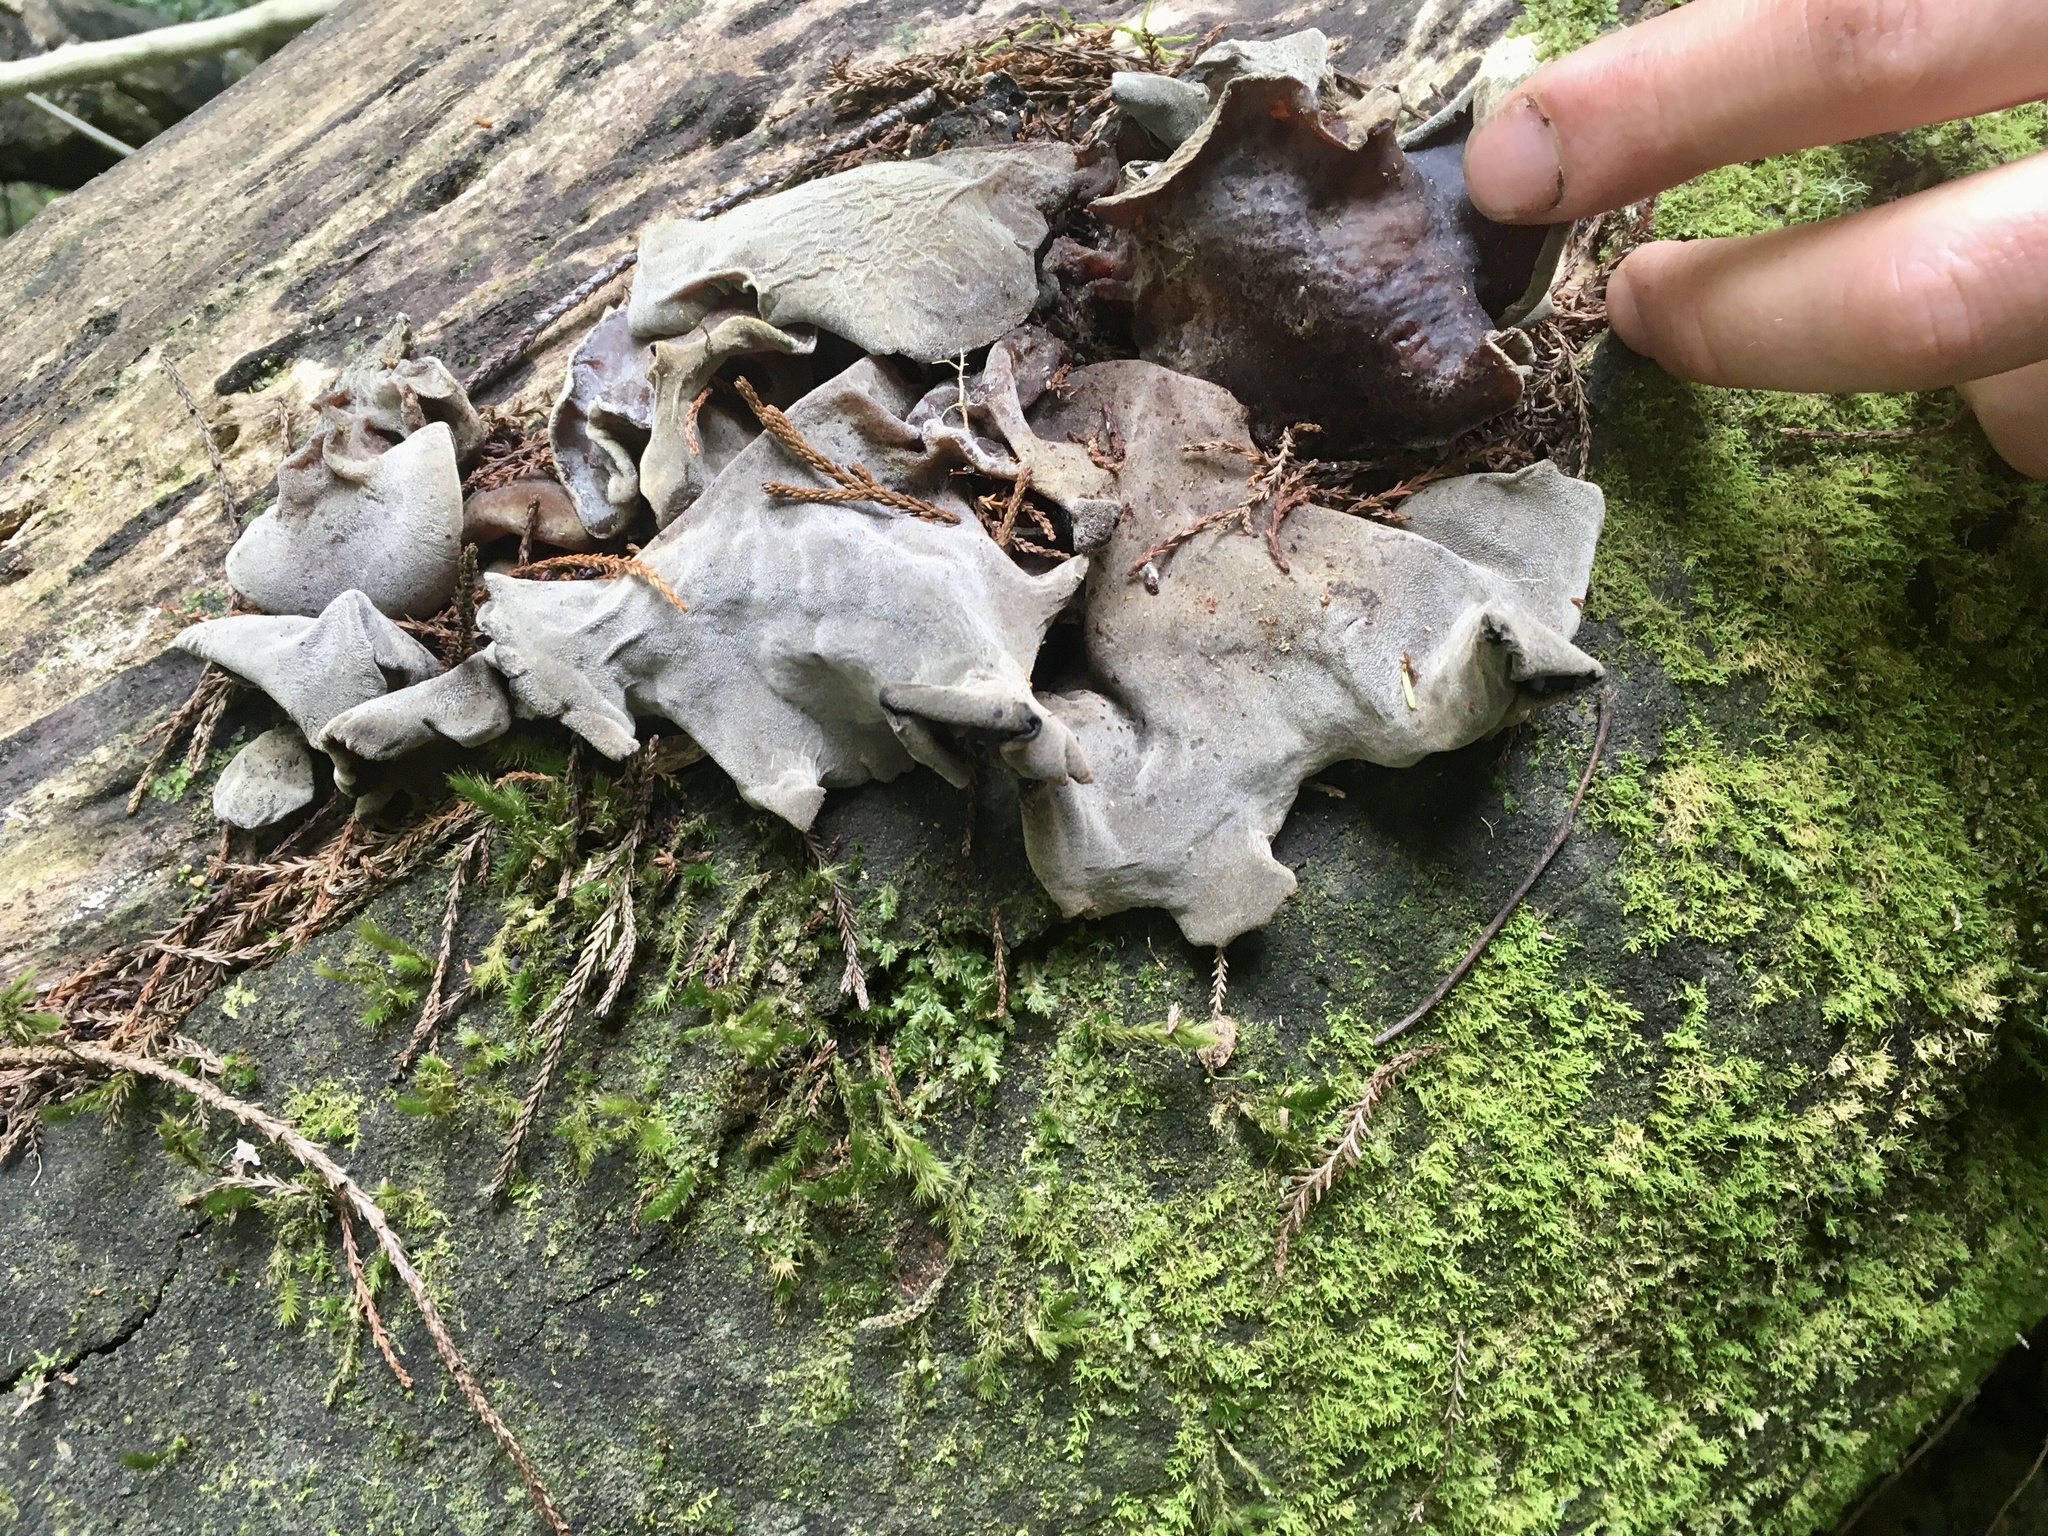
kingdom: Fungi
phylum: Basidiomycota
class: Agaricomycetes
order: Auriculariales
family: Auriculariaceae
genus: Auricularia
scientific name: Auricularia cornea
